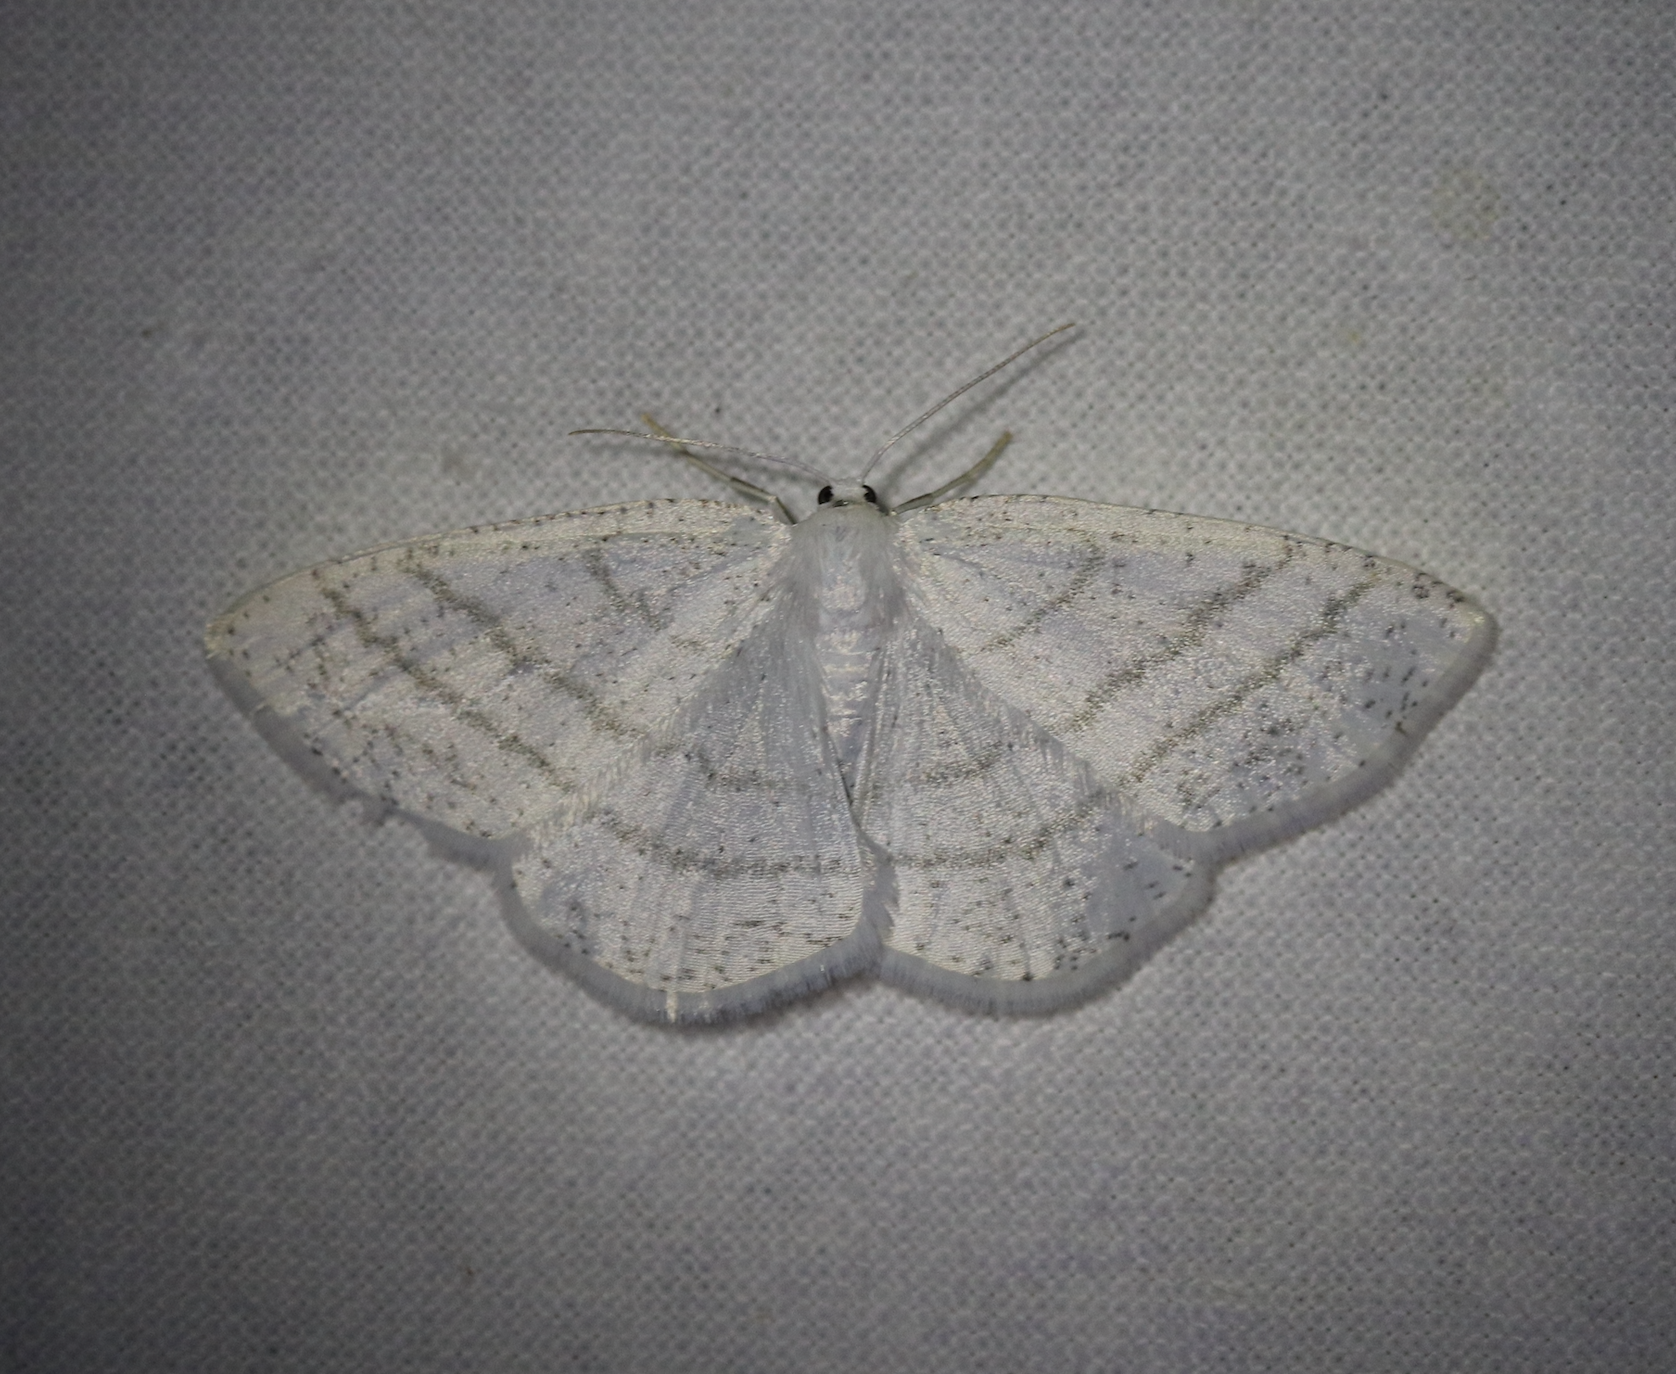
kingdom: Animalia
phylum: Arthropoda
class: Insecta
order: Lepidoptera
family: Geometridae
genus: Cabera
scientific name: Cabera pusaria
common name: Common white wave
